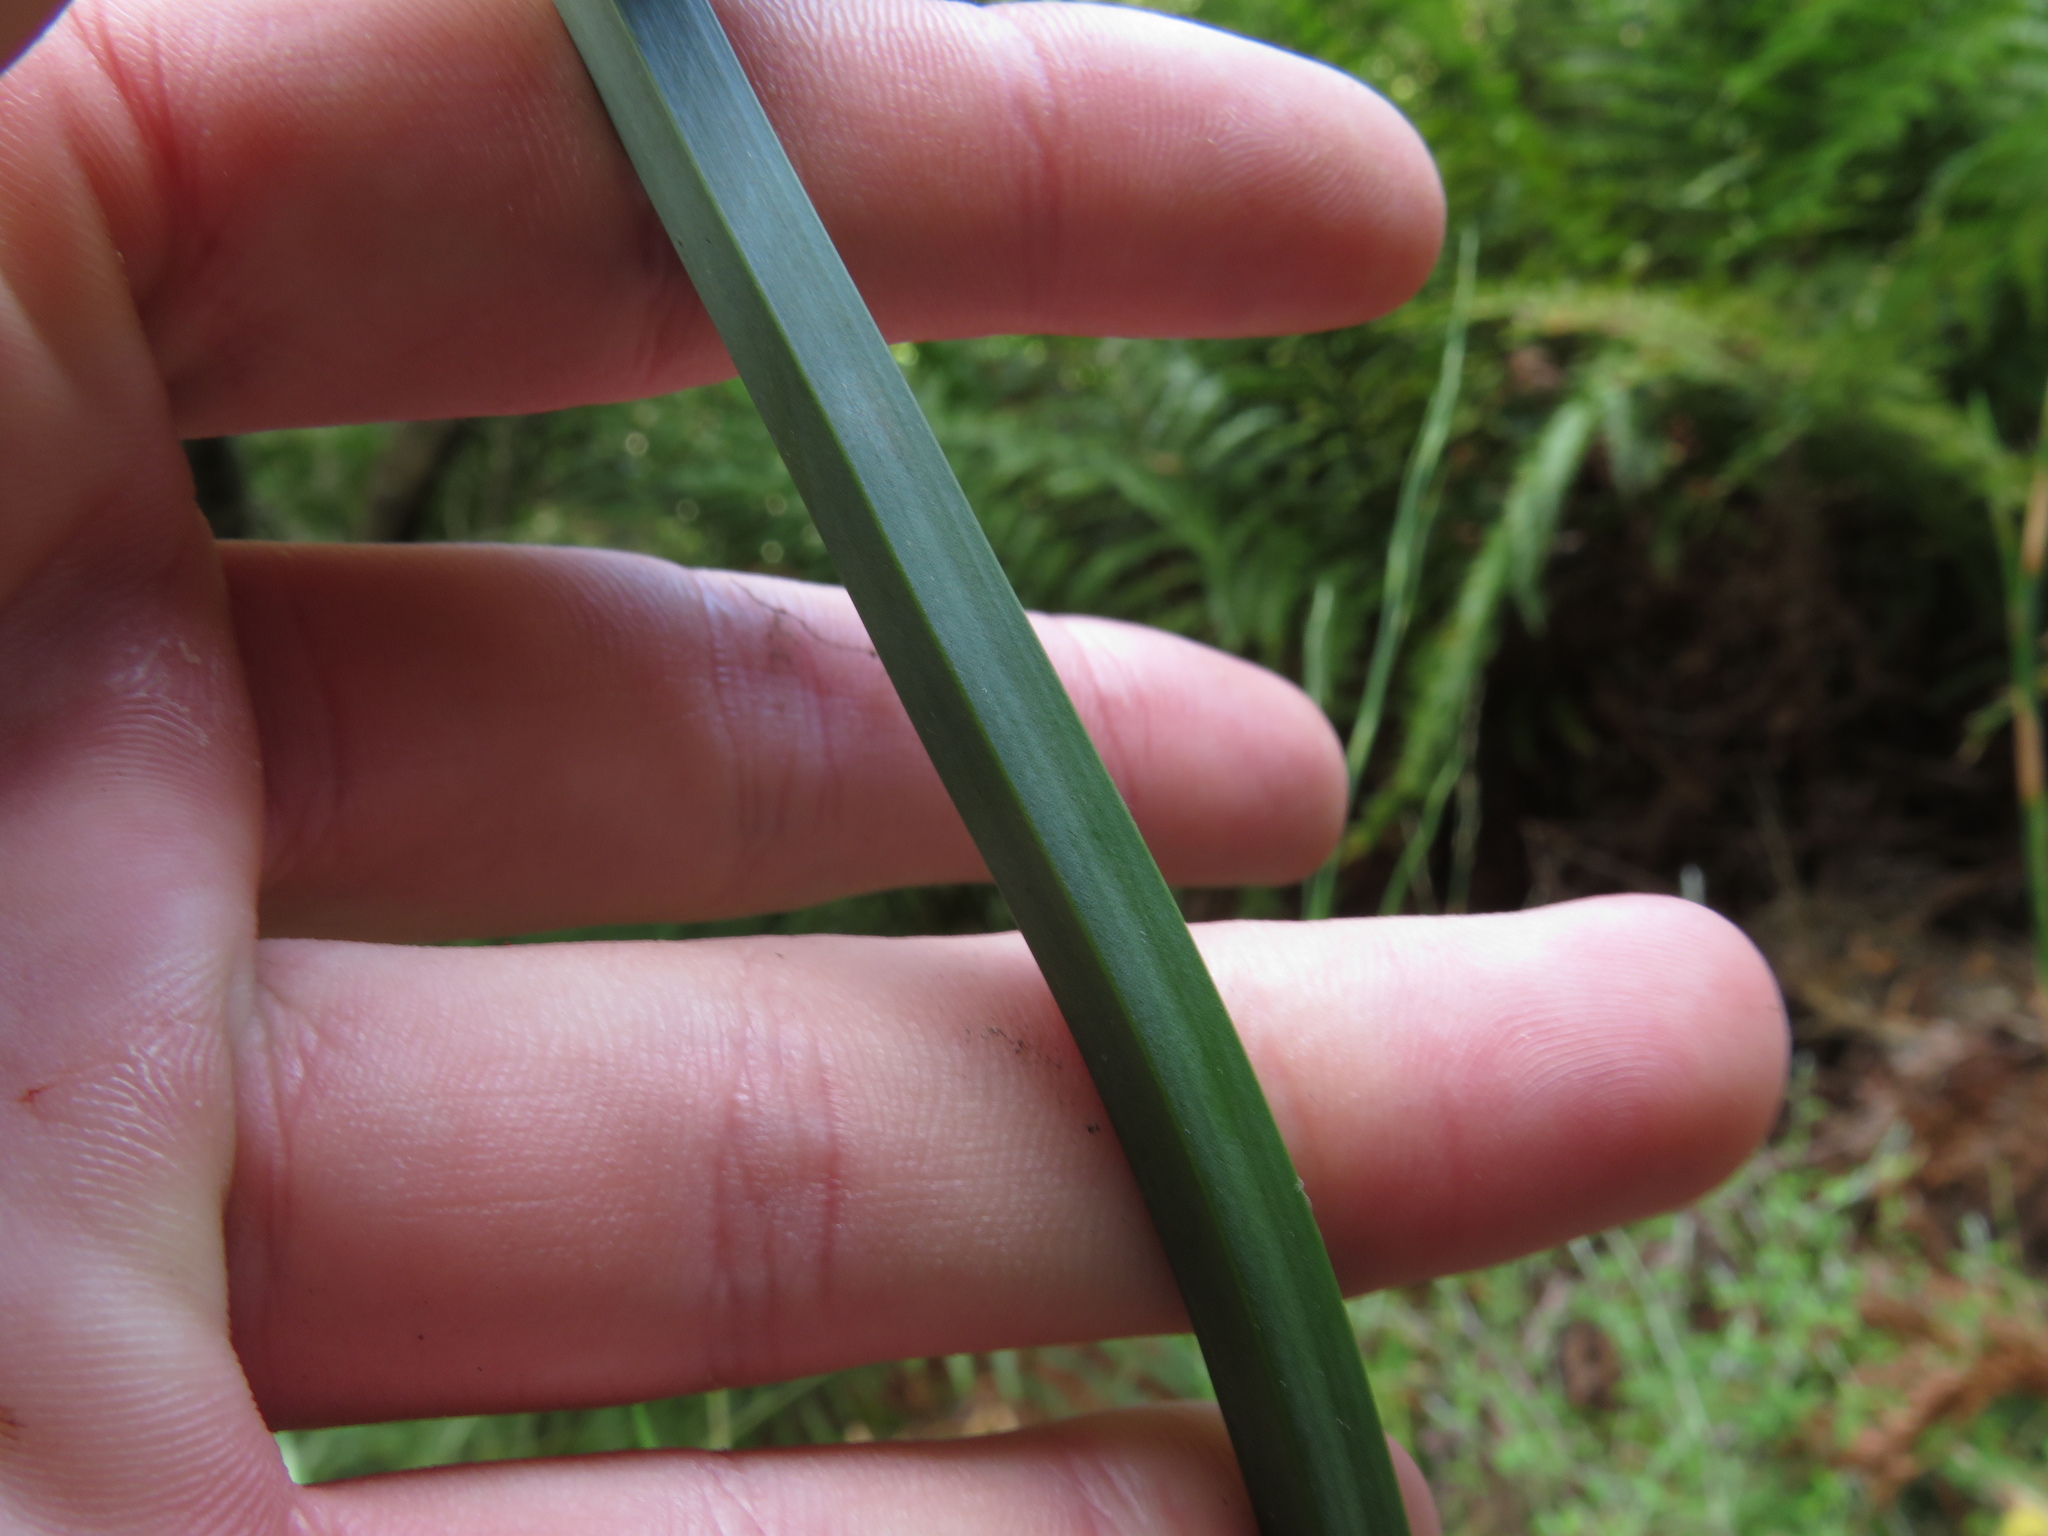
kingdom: Plantae
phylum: Tracheophyta
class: Liliopsida
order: Poales
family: Restionaceae
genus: Restio
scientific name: Restio tetragonus
